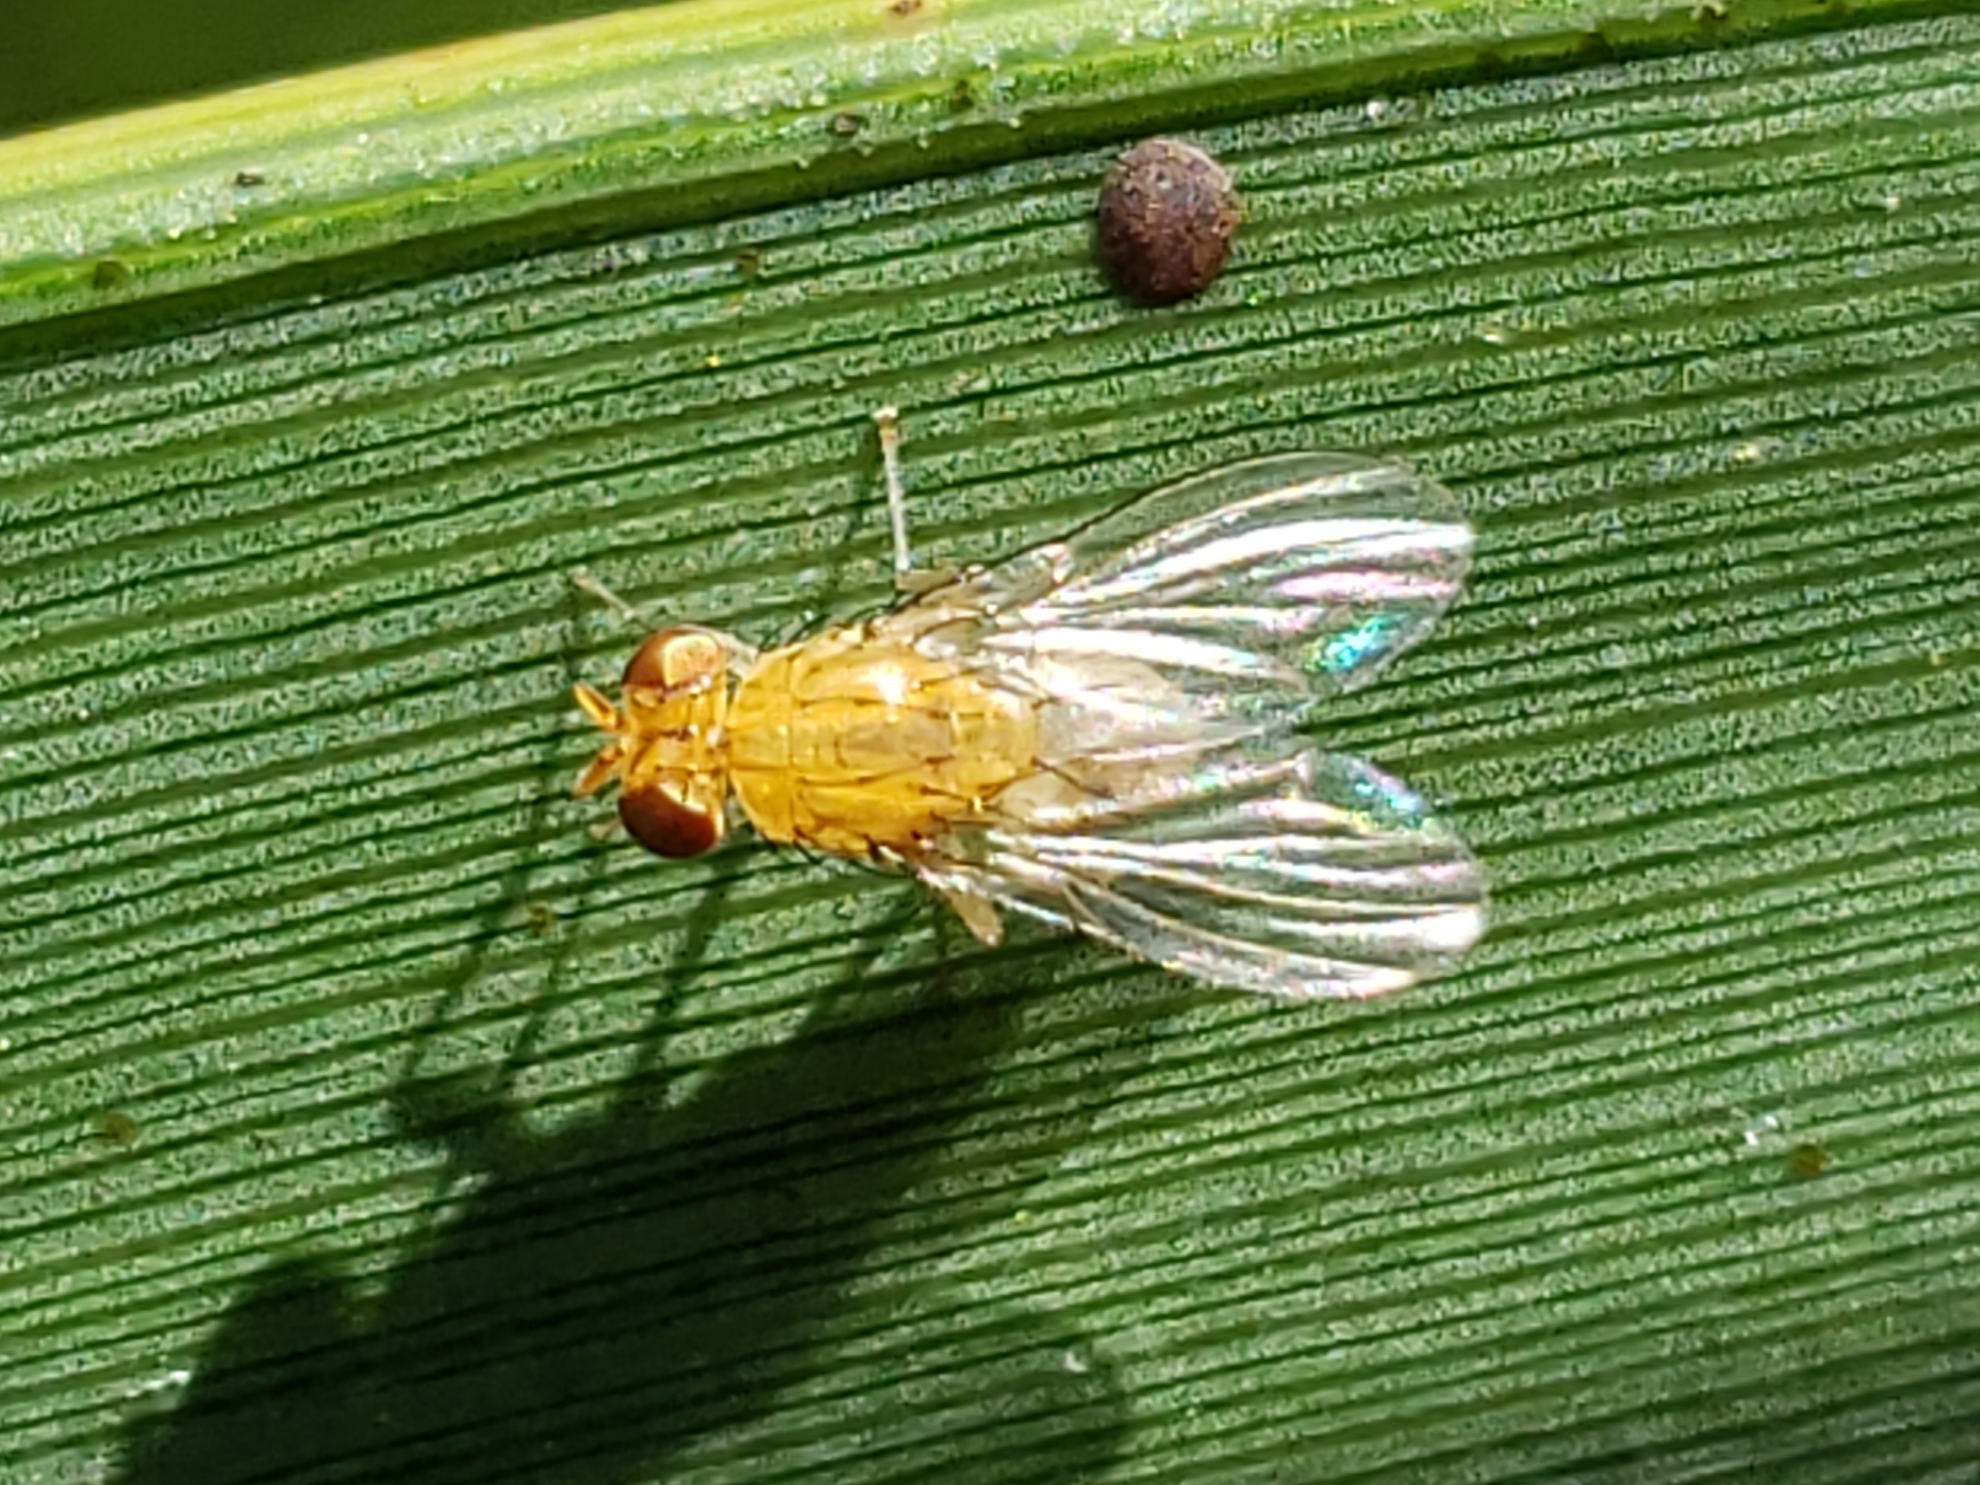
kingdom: Animalia
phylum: Arthropoda
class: Insecta
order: Diptera
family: Lauxaniidae
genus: Neogriphoneura
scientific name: Neogriphoneura sordida
